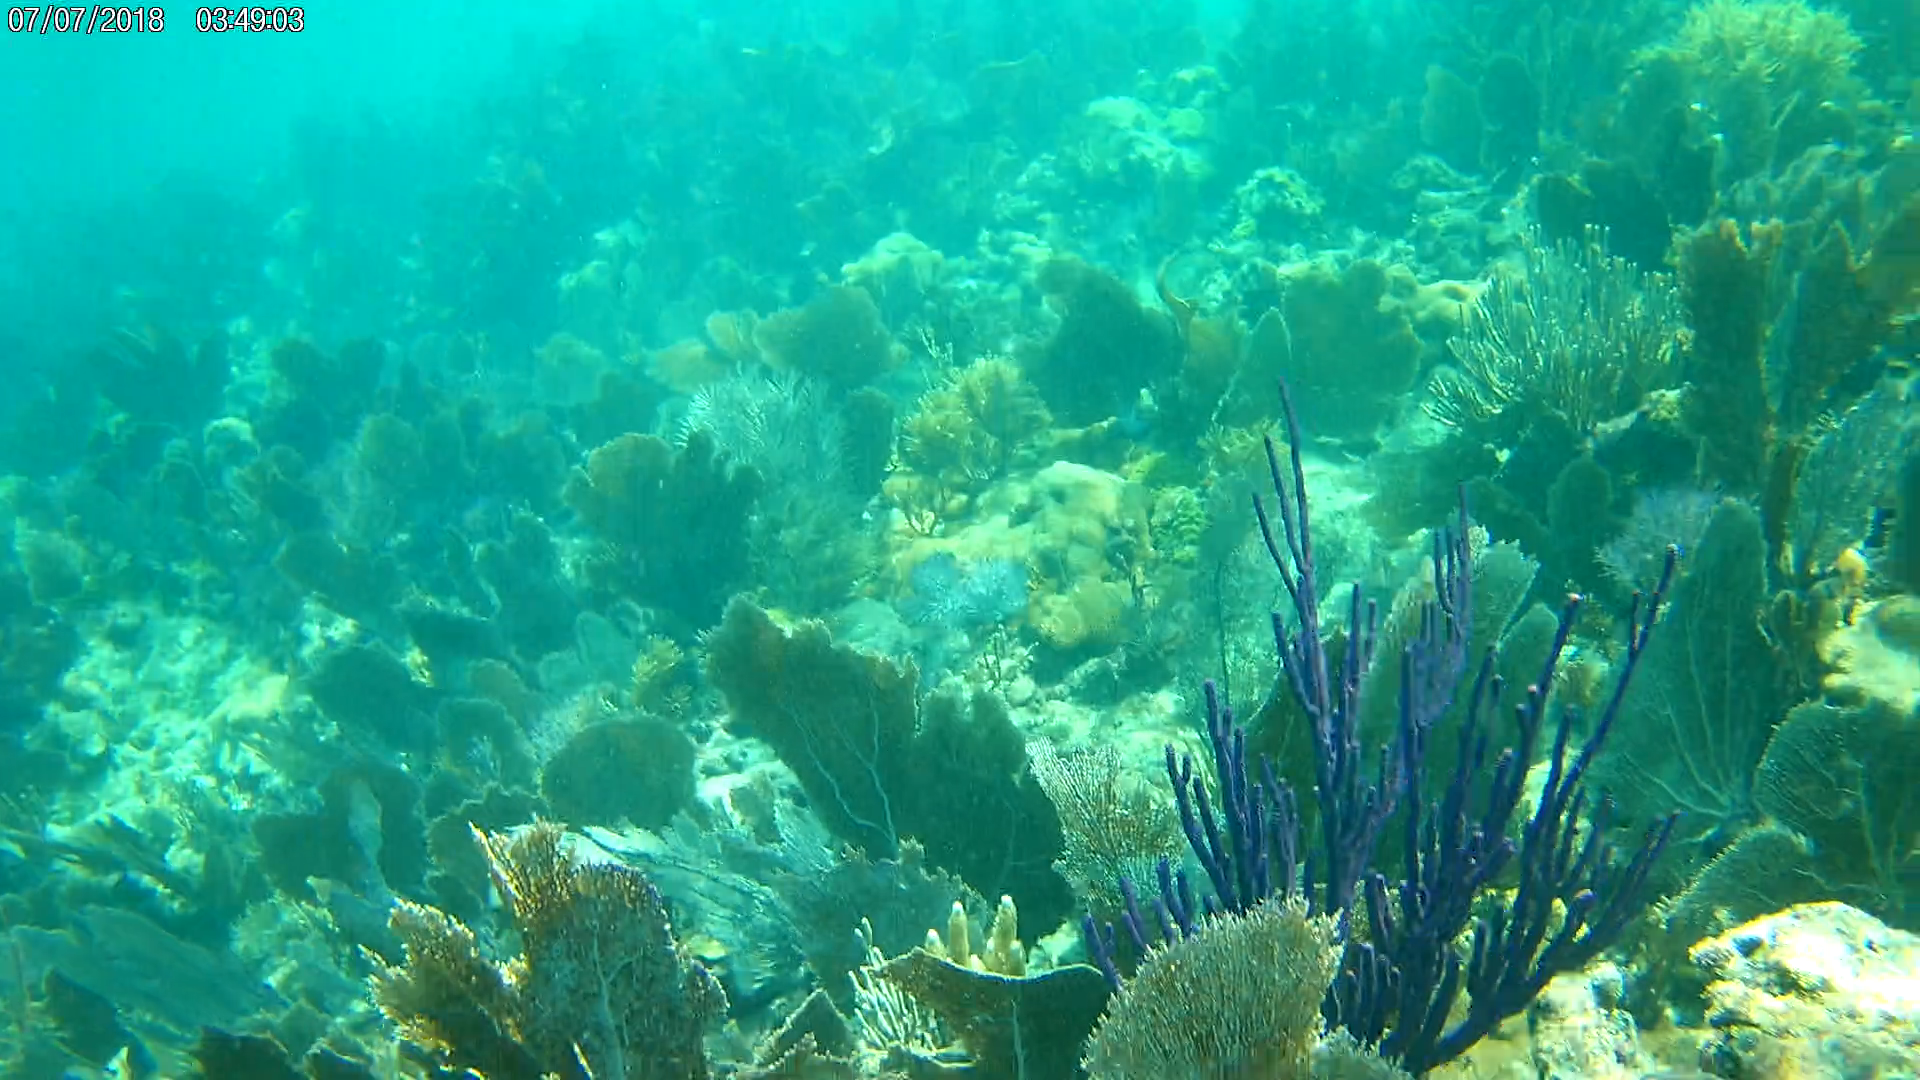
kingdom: Animalia
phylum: Cnidaria
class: Anthozoa
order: Malacalcyonacea
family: Plexauridae
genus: Eunicea
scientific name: Eunicea flexuosa
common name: Sea rod
